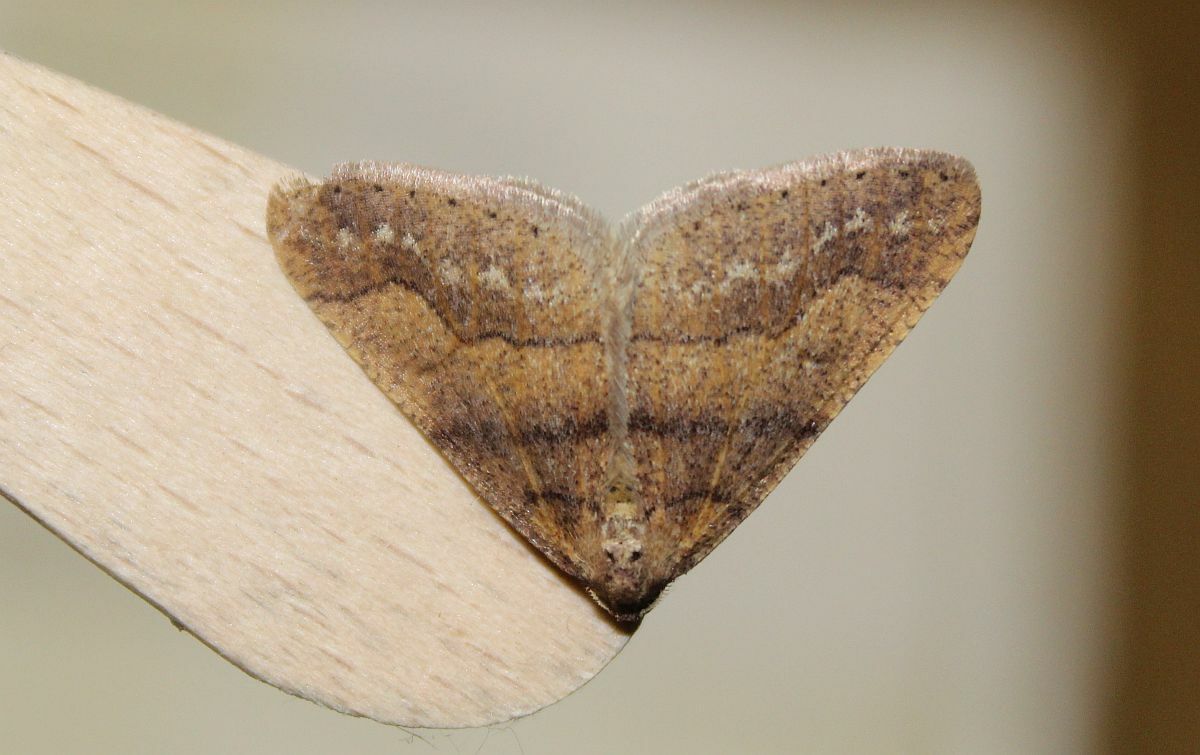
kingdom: Animalia
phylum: Arthropoda
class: Insecta
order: Lepidoptera
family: Geometridae
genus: Agriopis
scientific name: Agriopis marginaria
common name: Dotted border
